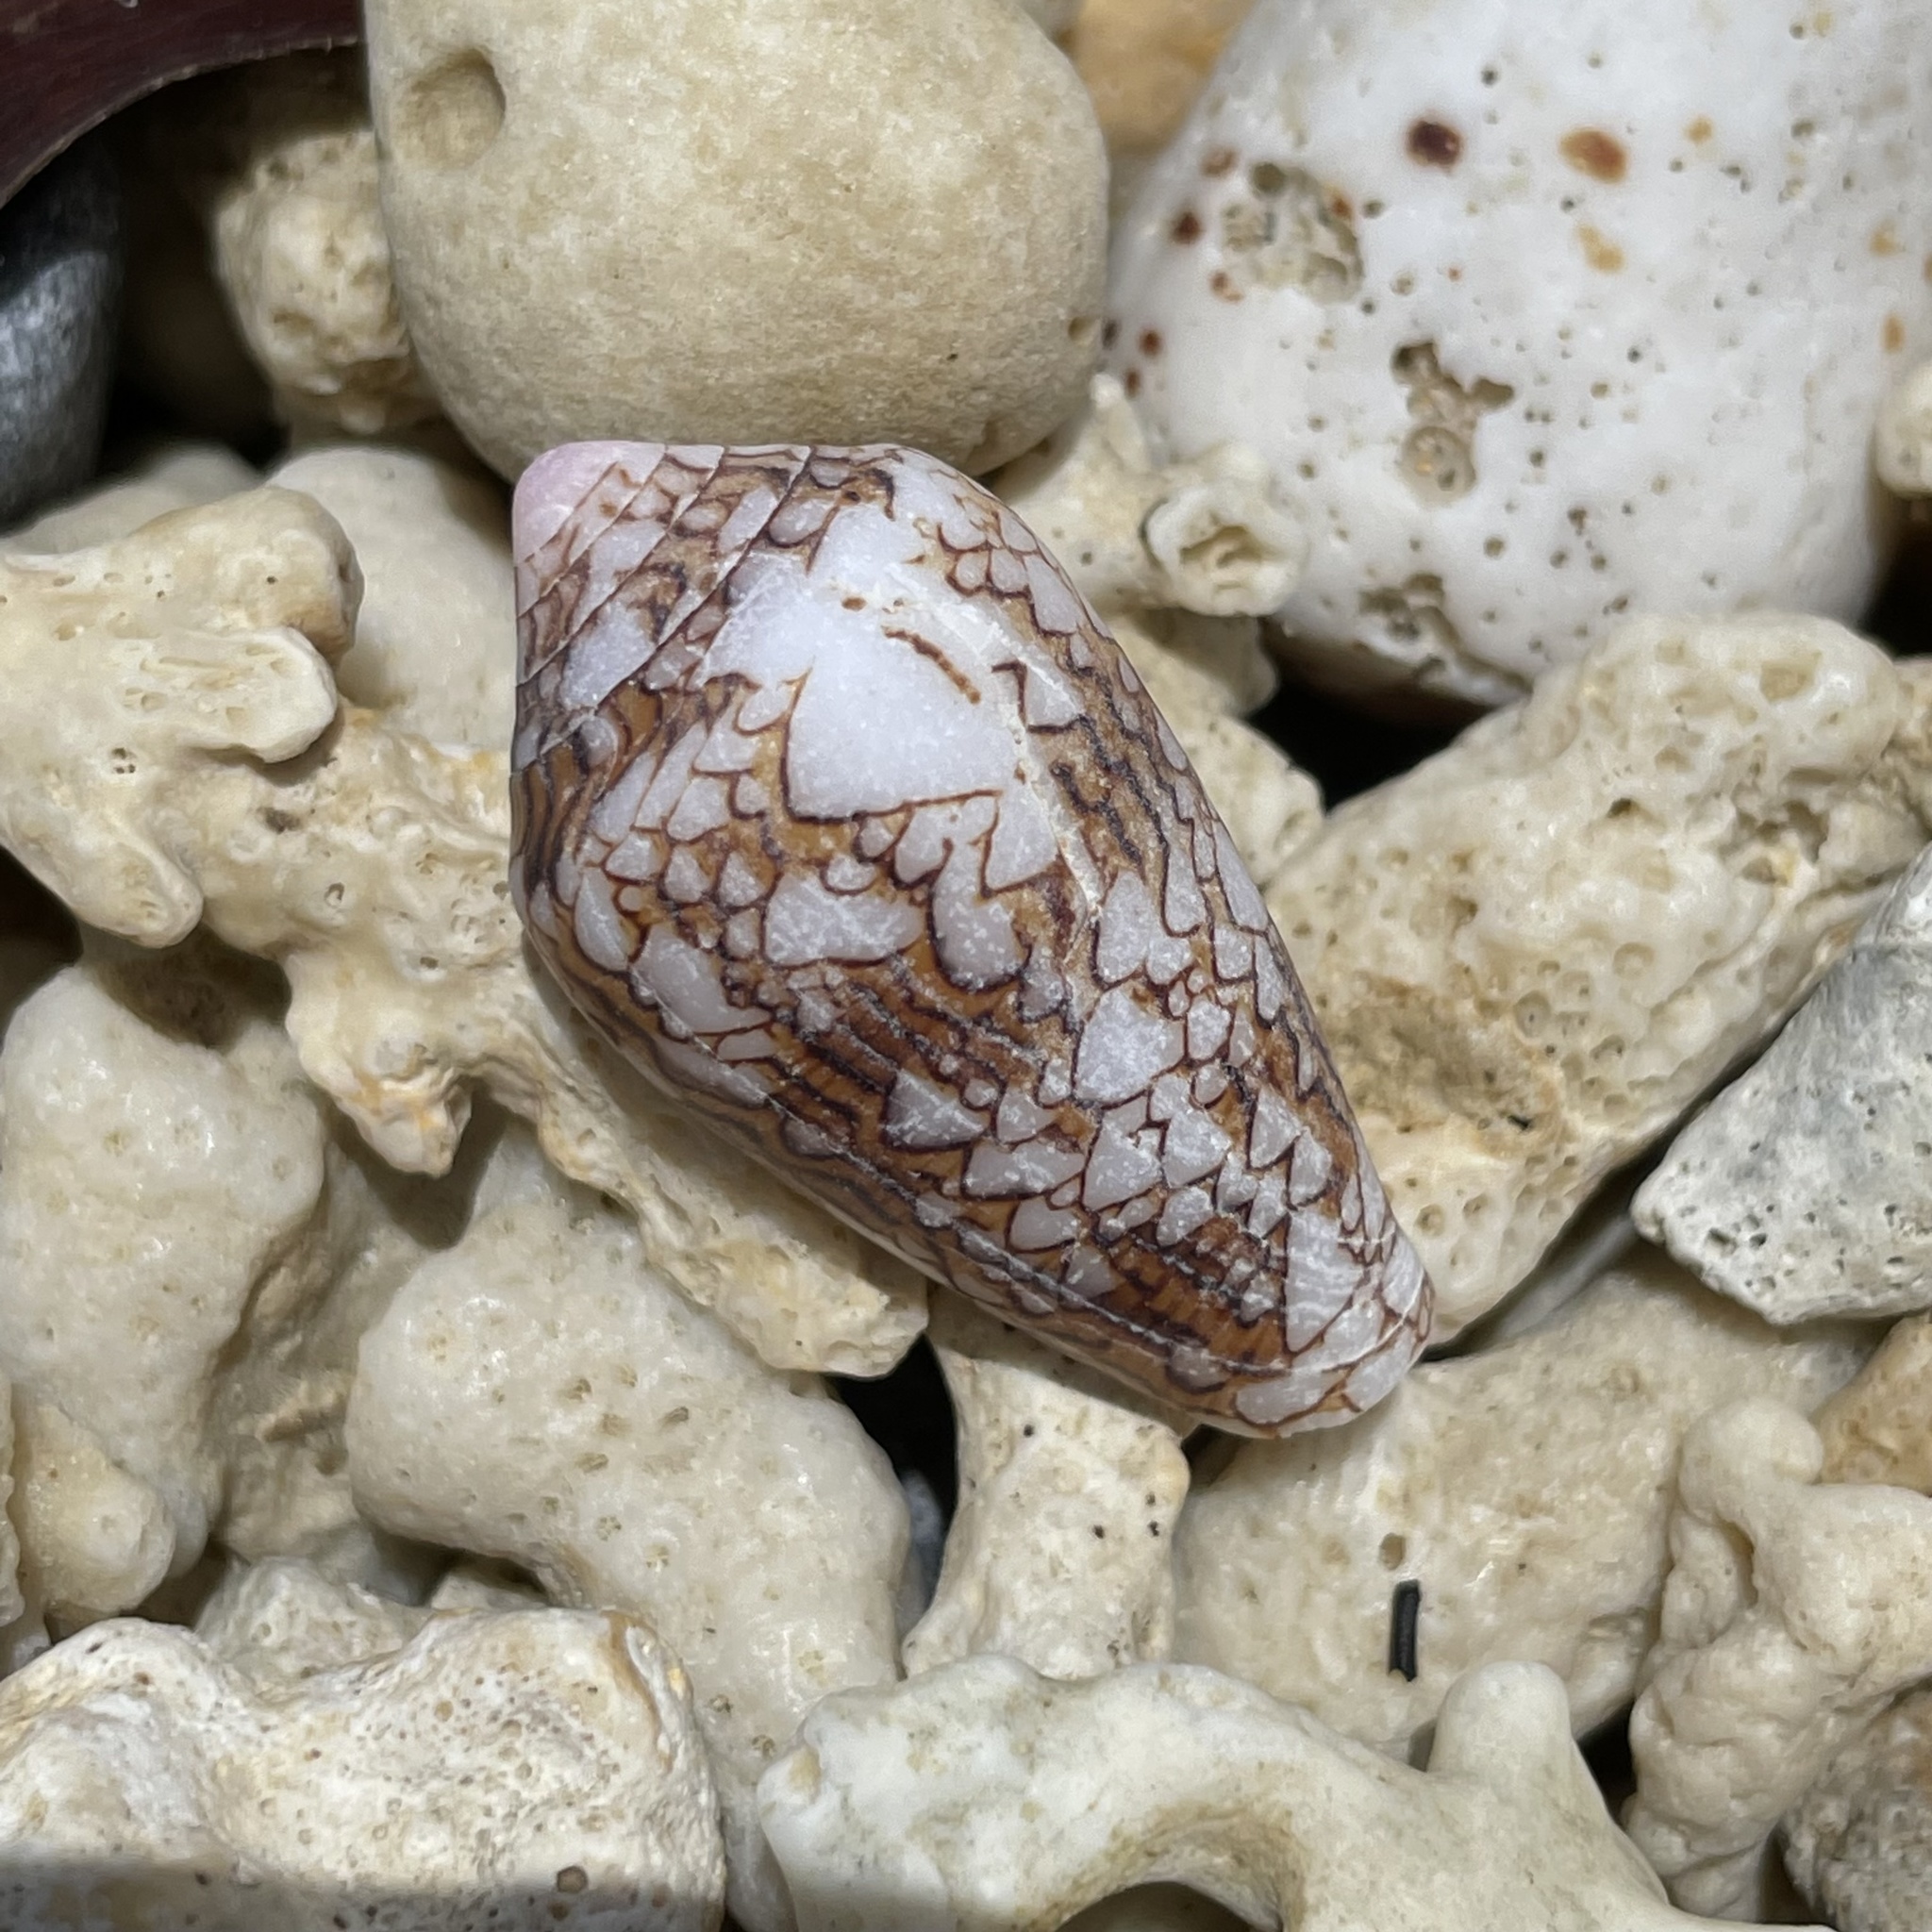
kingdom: Animalia
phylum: Mollusca
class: Gastropoda
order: Neogastropoda
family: Conidae
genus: Conus
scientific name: Conus textile
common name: Cloth-of-gold cone
